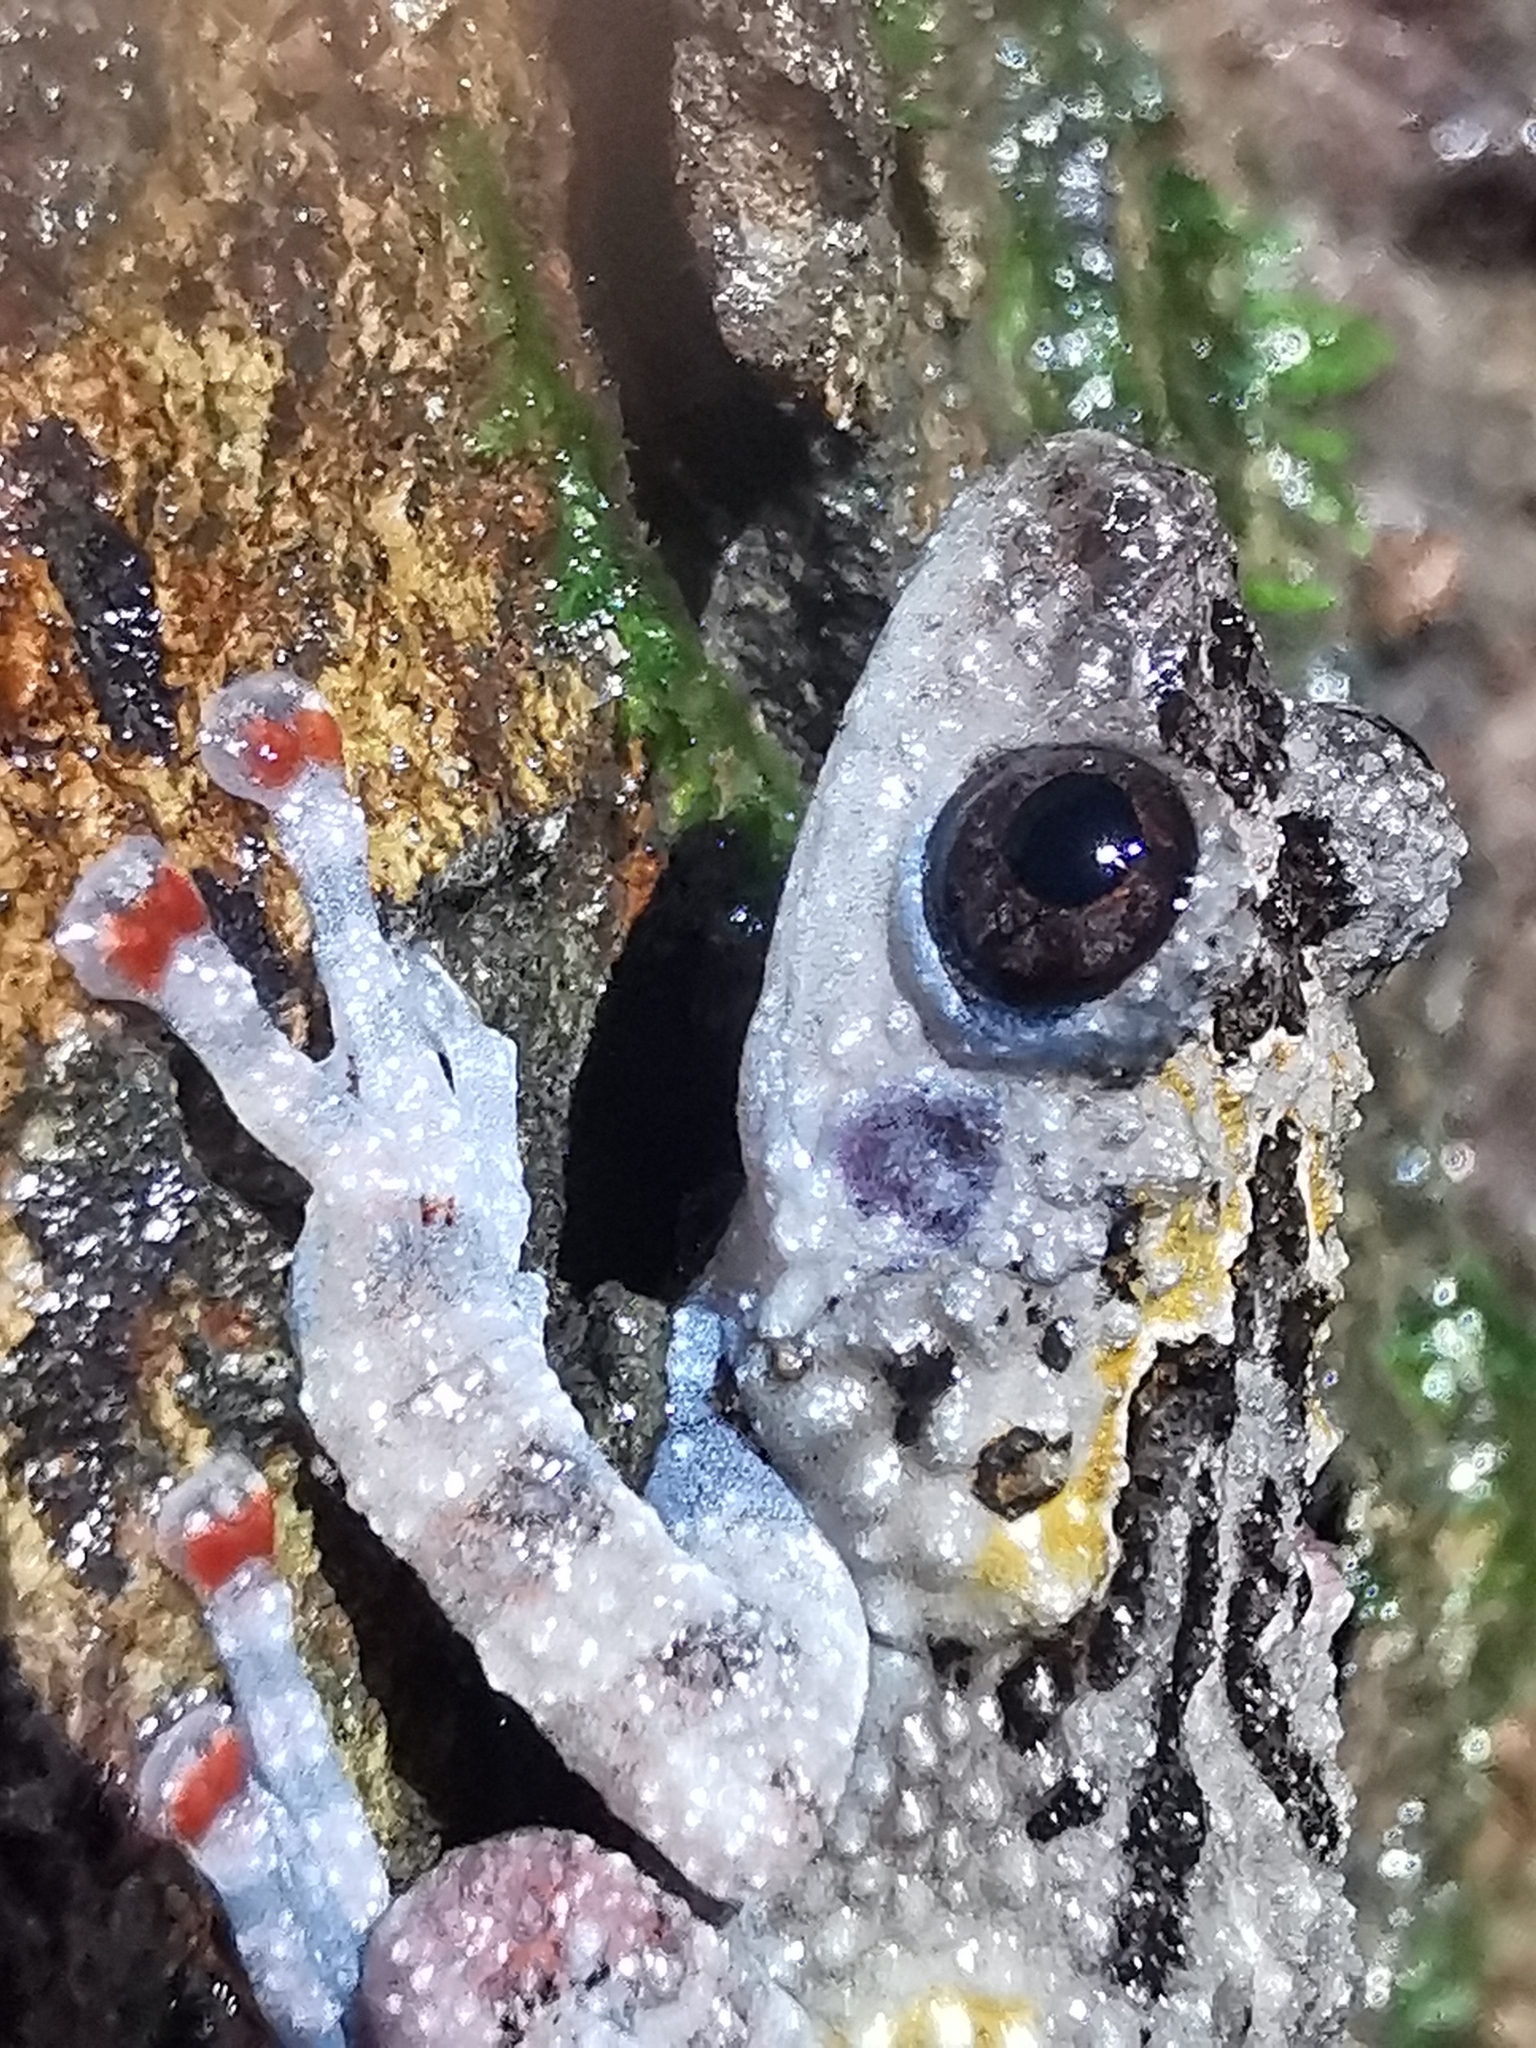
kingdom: Animalia
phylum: Chordata
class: Amphibia
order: Anura
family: Rhacophoridae
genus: Theloderma
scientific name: Theloderma vietnamense
